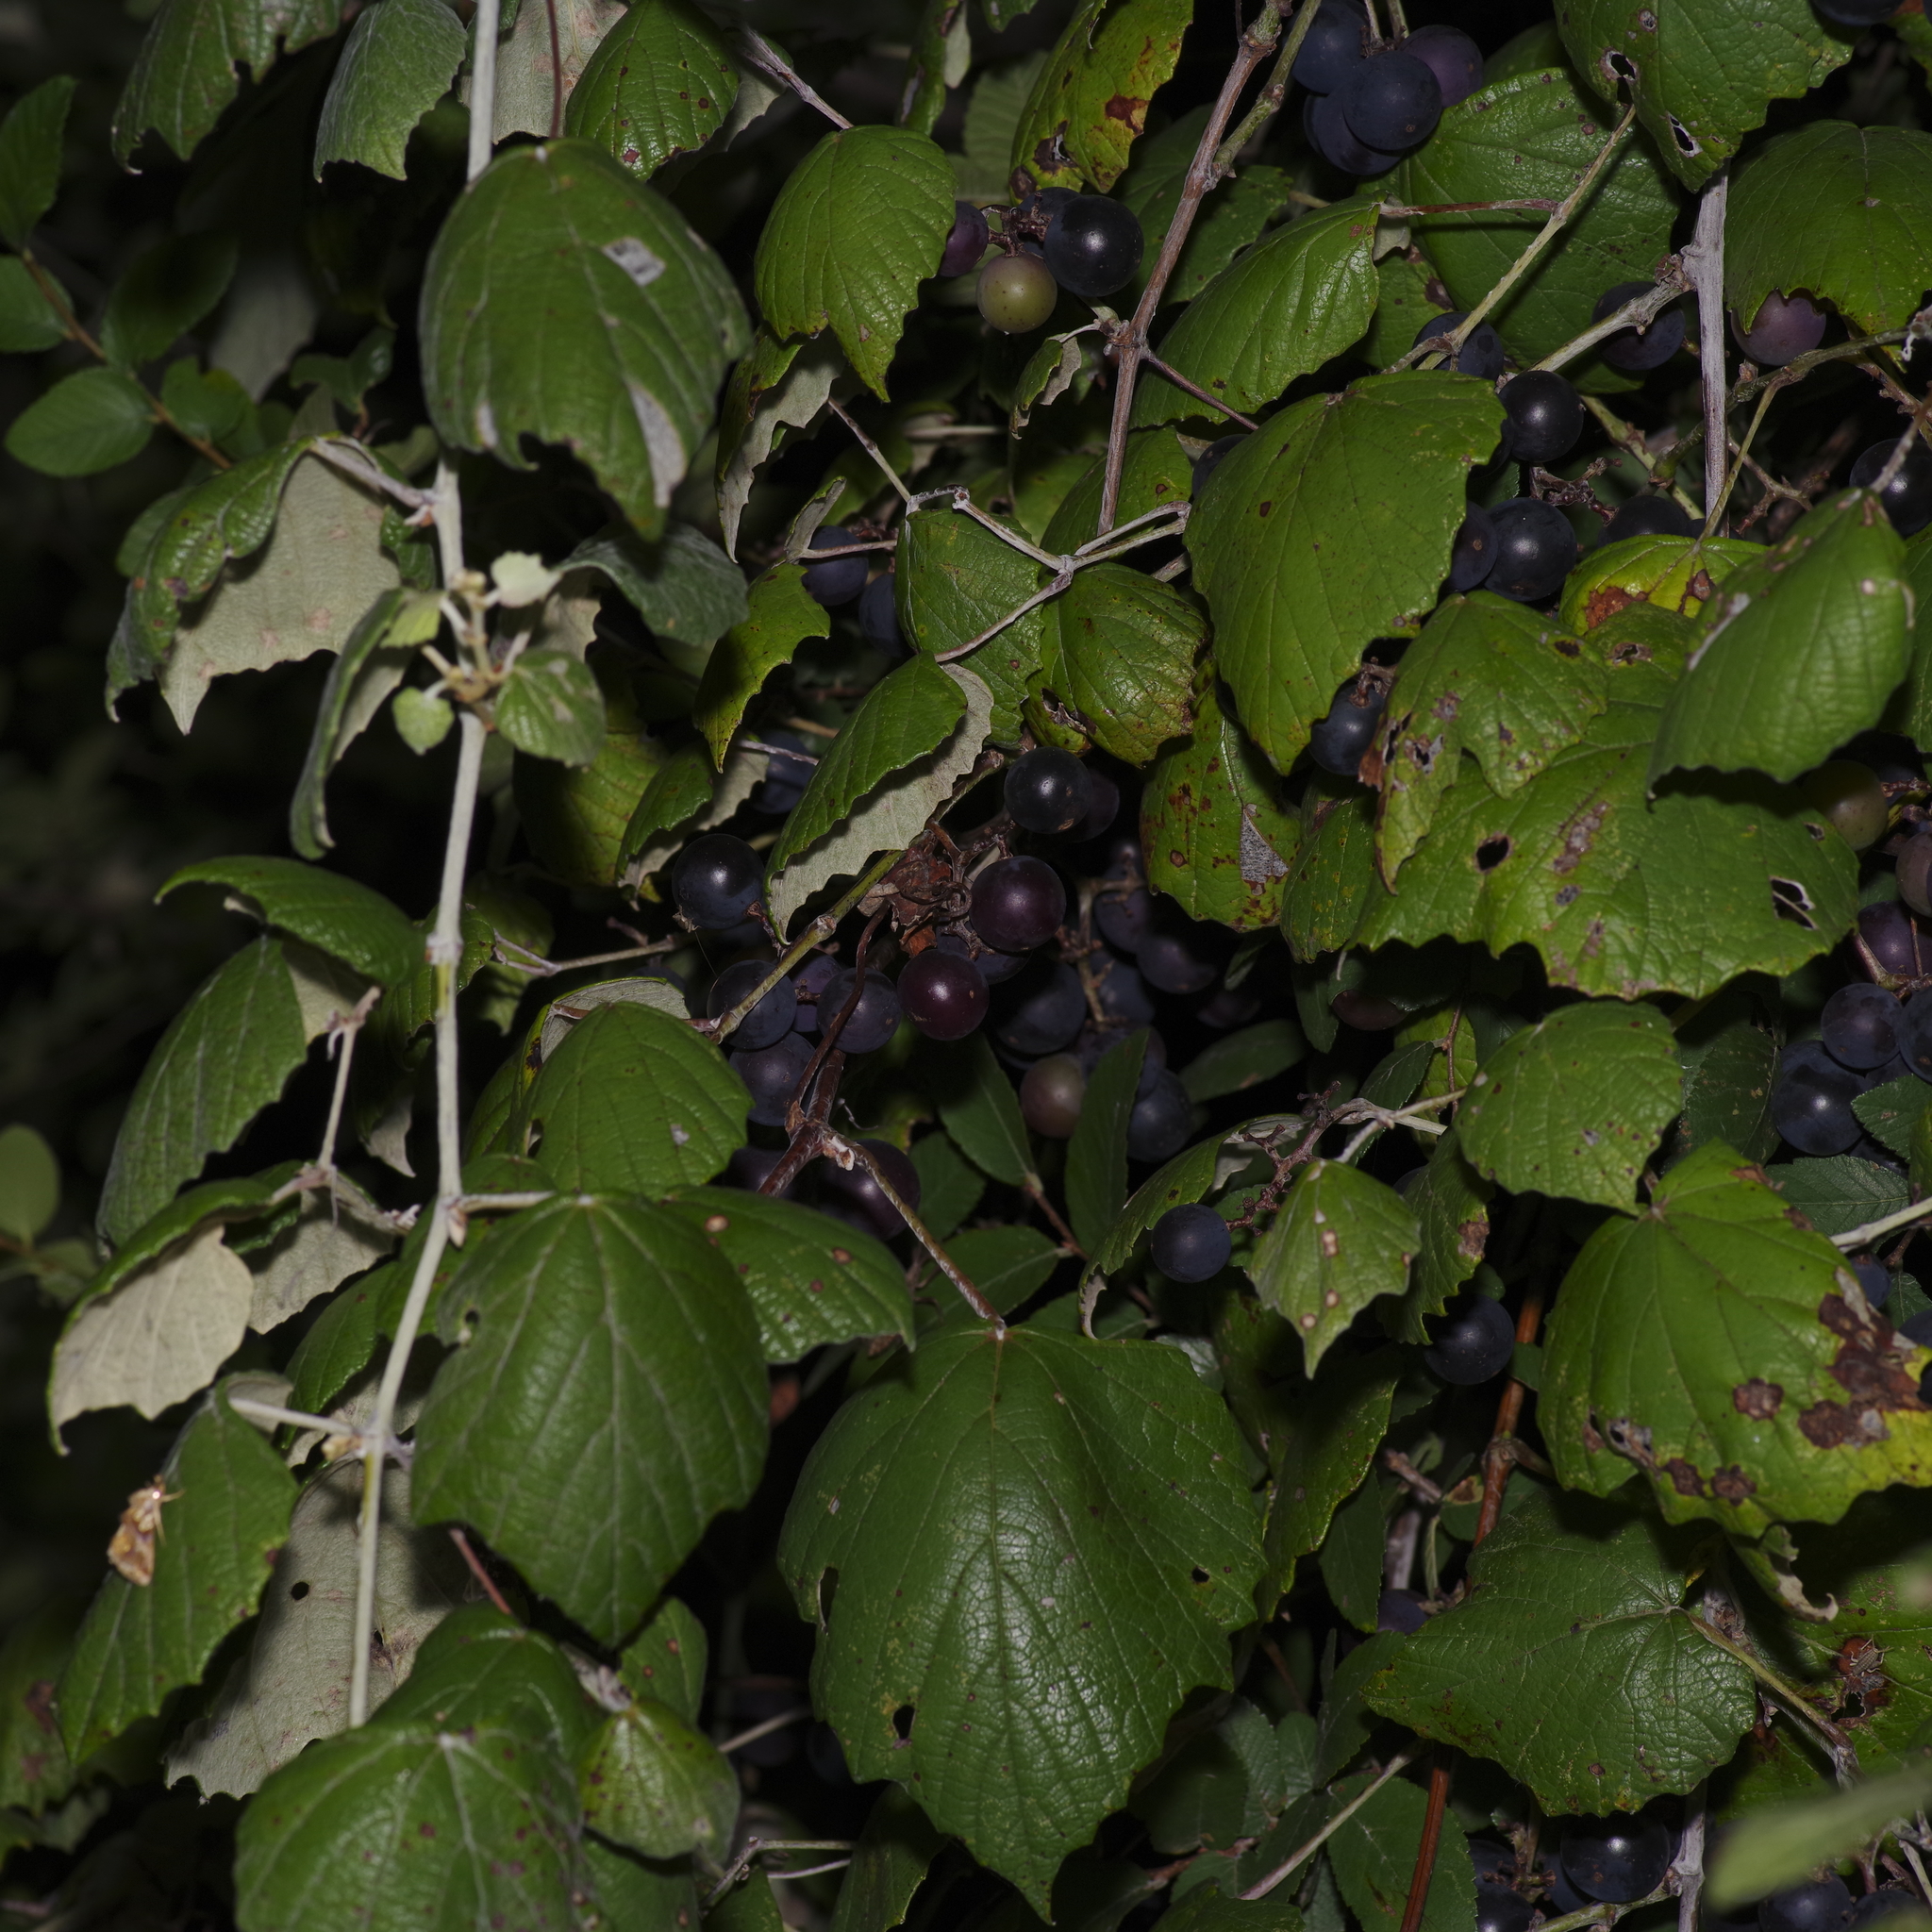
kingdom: Plantae
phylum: Tracheophyta
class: Magnoliopsida
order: Vitales
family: Vitaceae
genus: Vitis
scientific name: Vitis mustangensis
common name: Mustang grape
